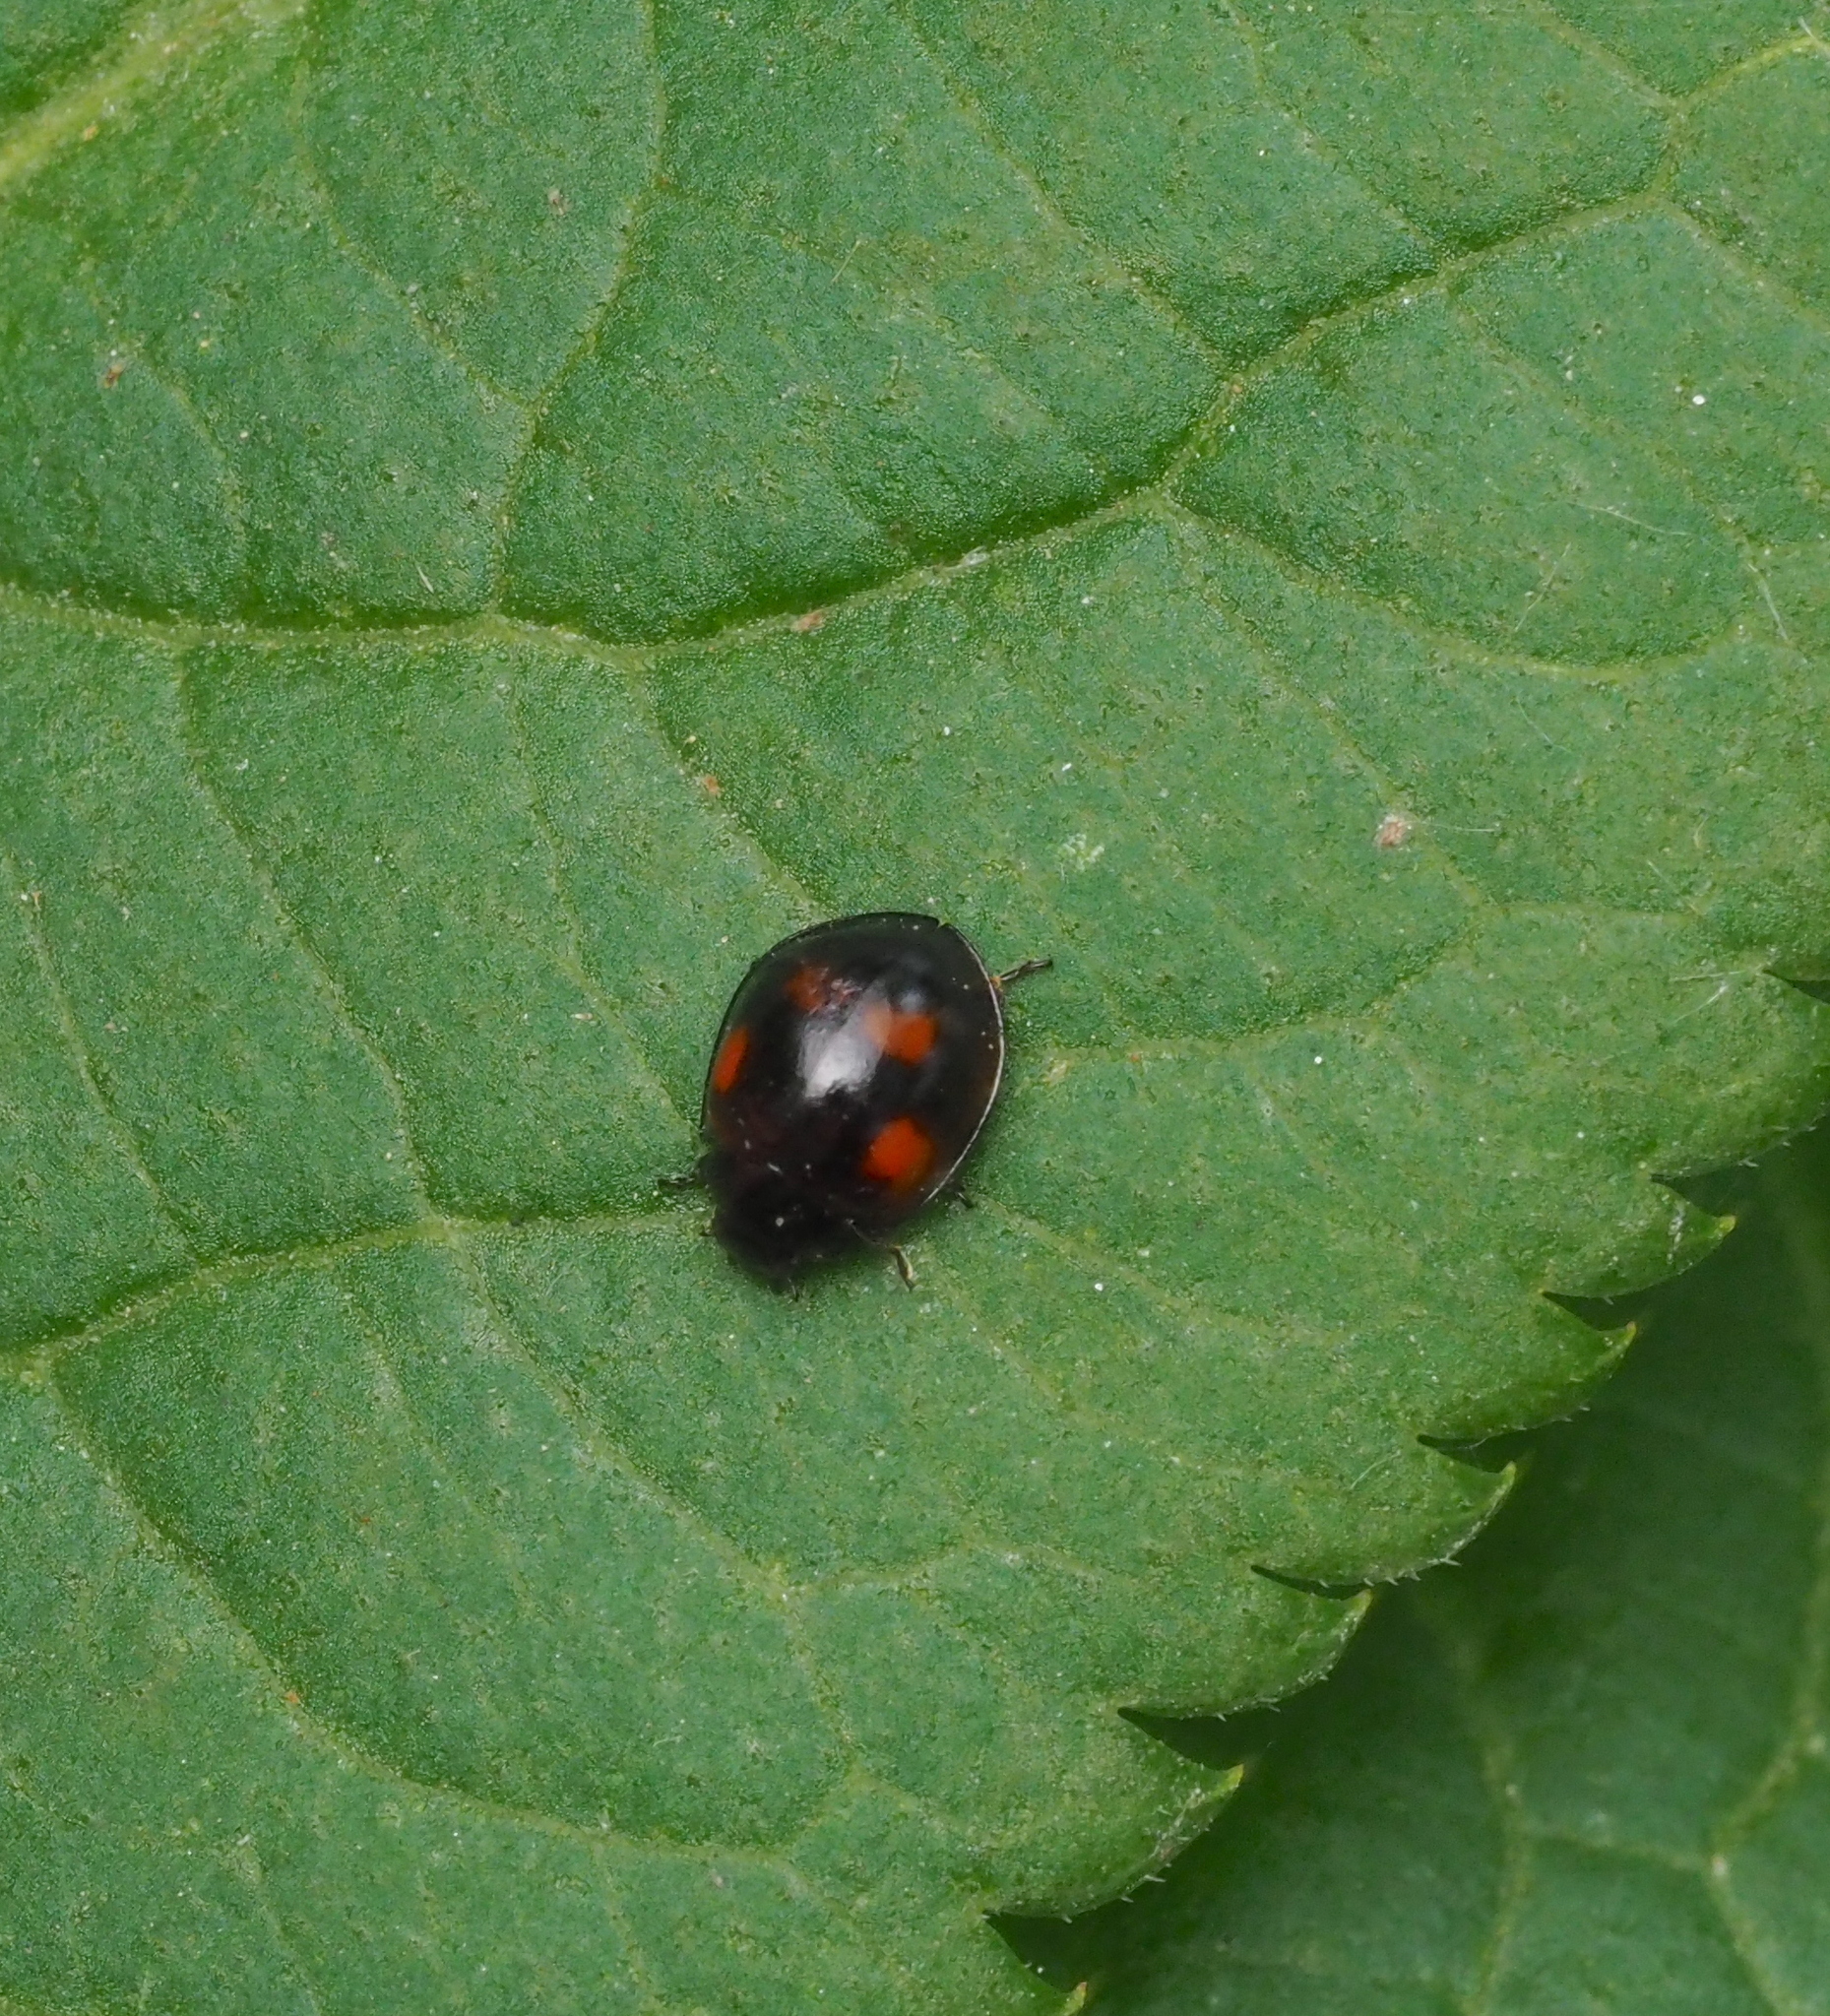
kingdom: Animalia
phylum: Arthropoda
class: Insecta
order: Coleoptera
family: Coccinellidae
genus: Brumus
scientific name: Brumus quadripustulatus
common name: Ladybird beetle
